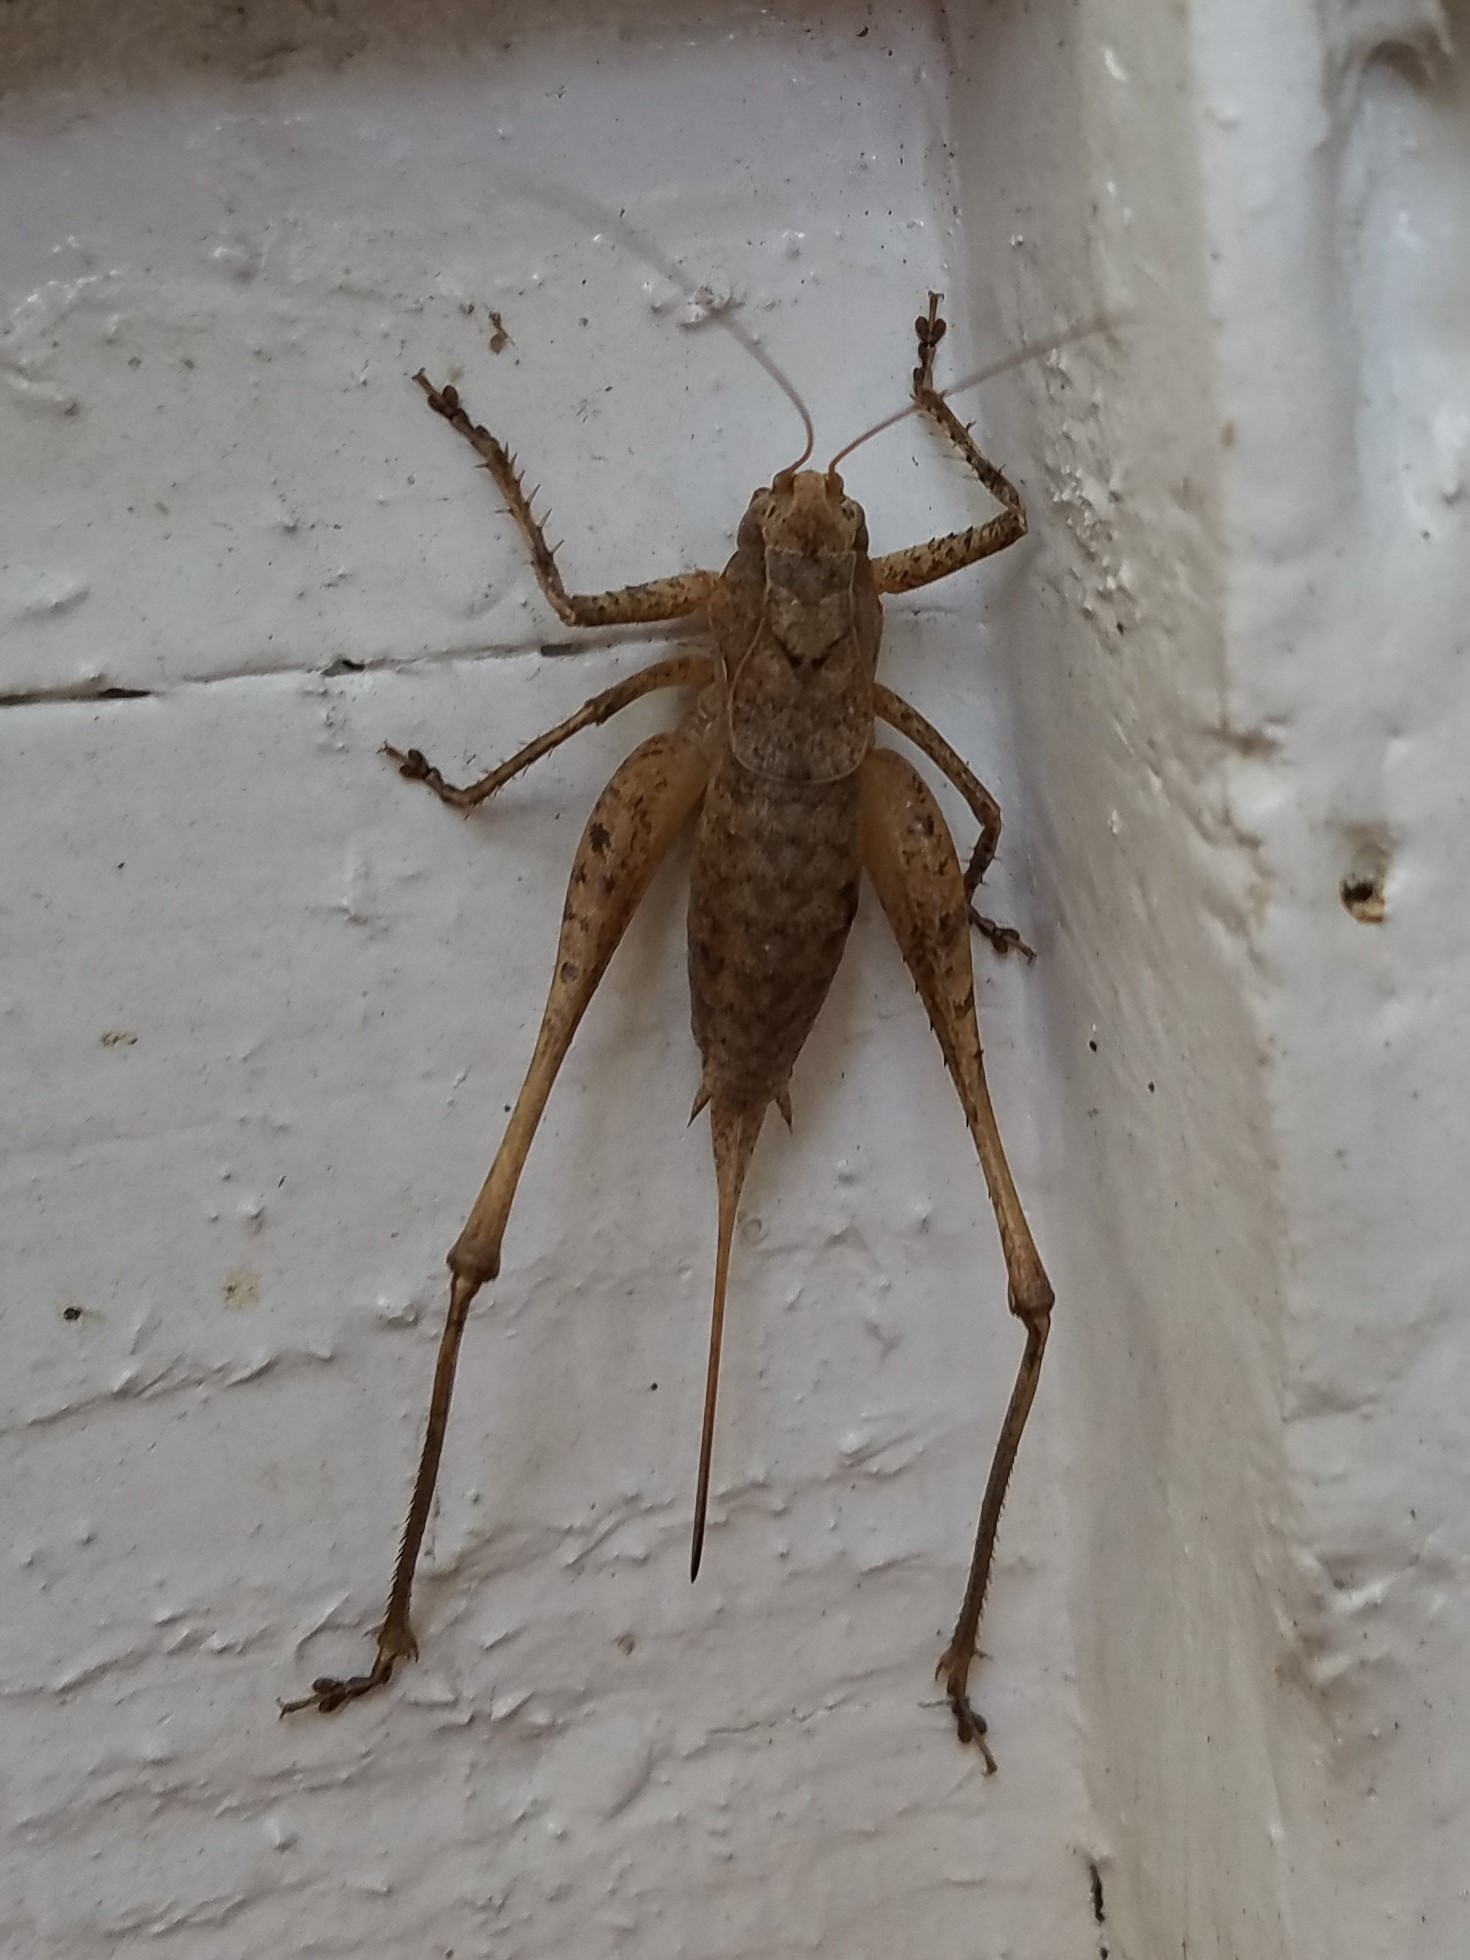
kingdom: Animalia
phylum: Arthropoda
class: Insecta
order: Orthoptera
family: Tettigoniidae
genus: Atlanticus
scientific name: Atlanticus americanus
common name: American shield-bearer
